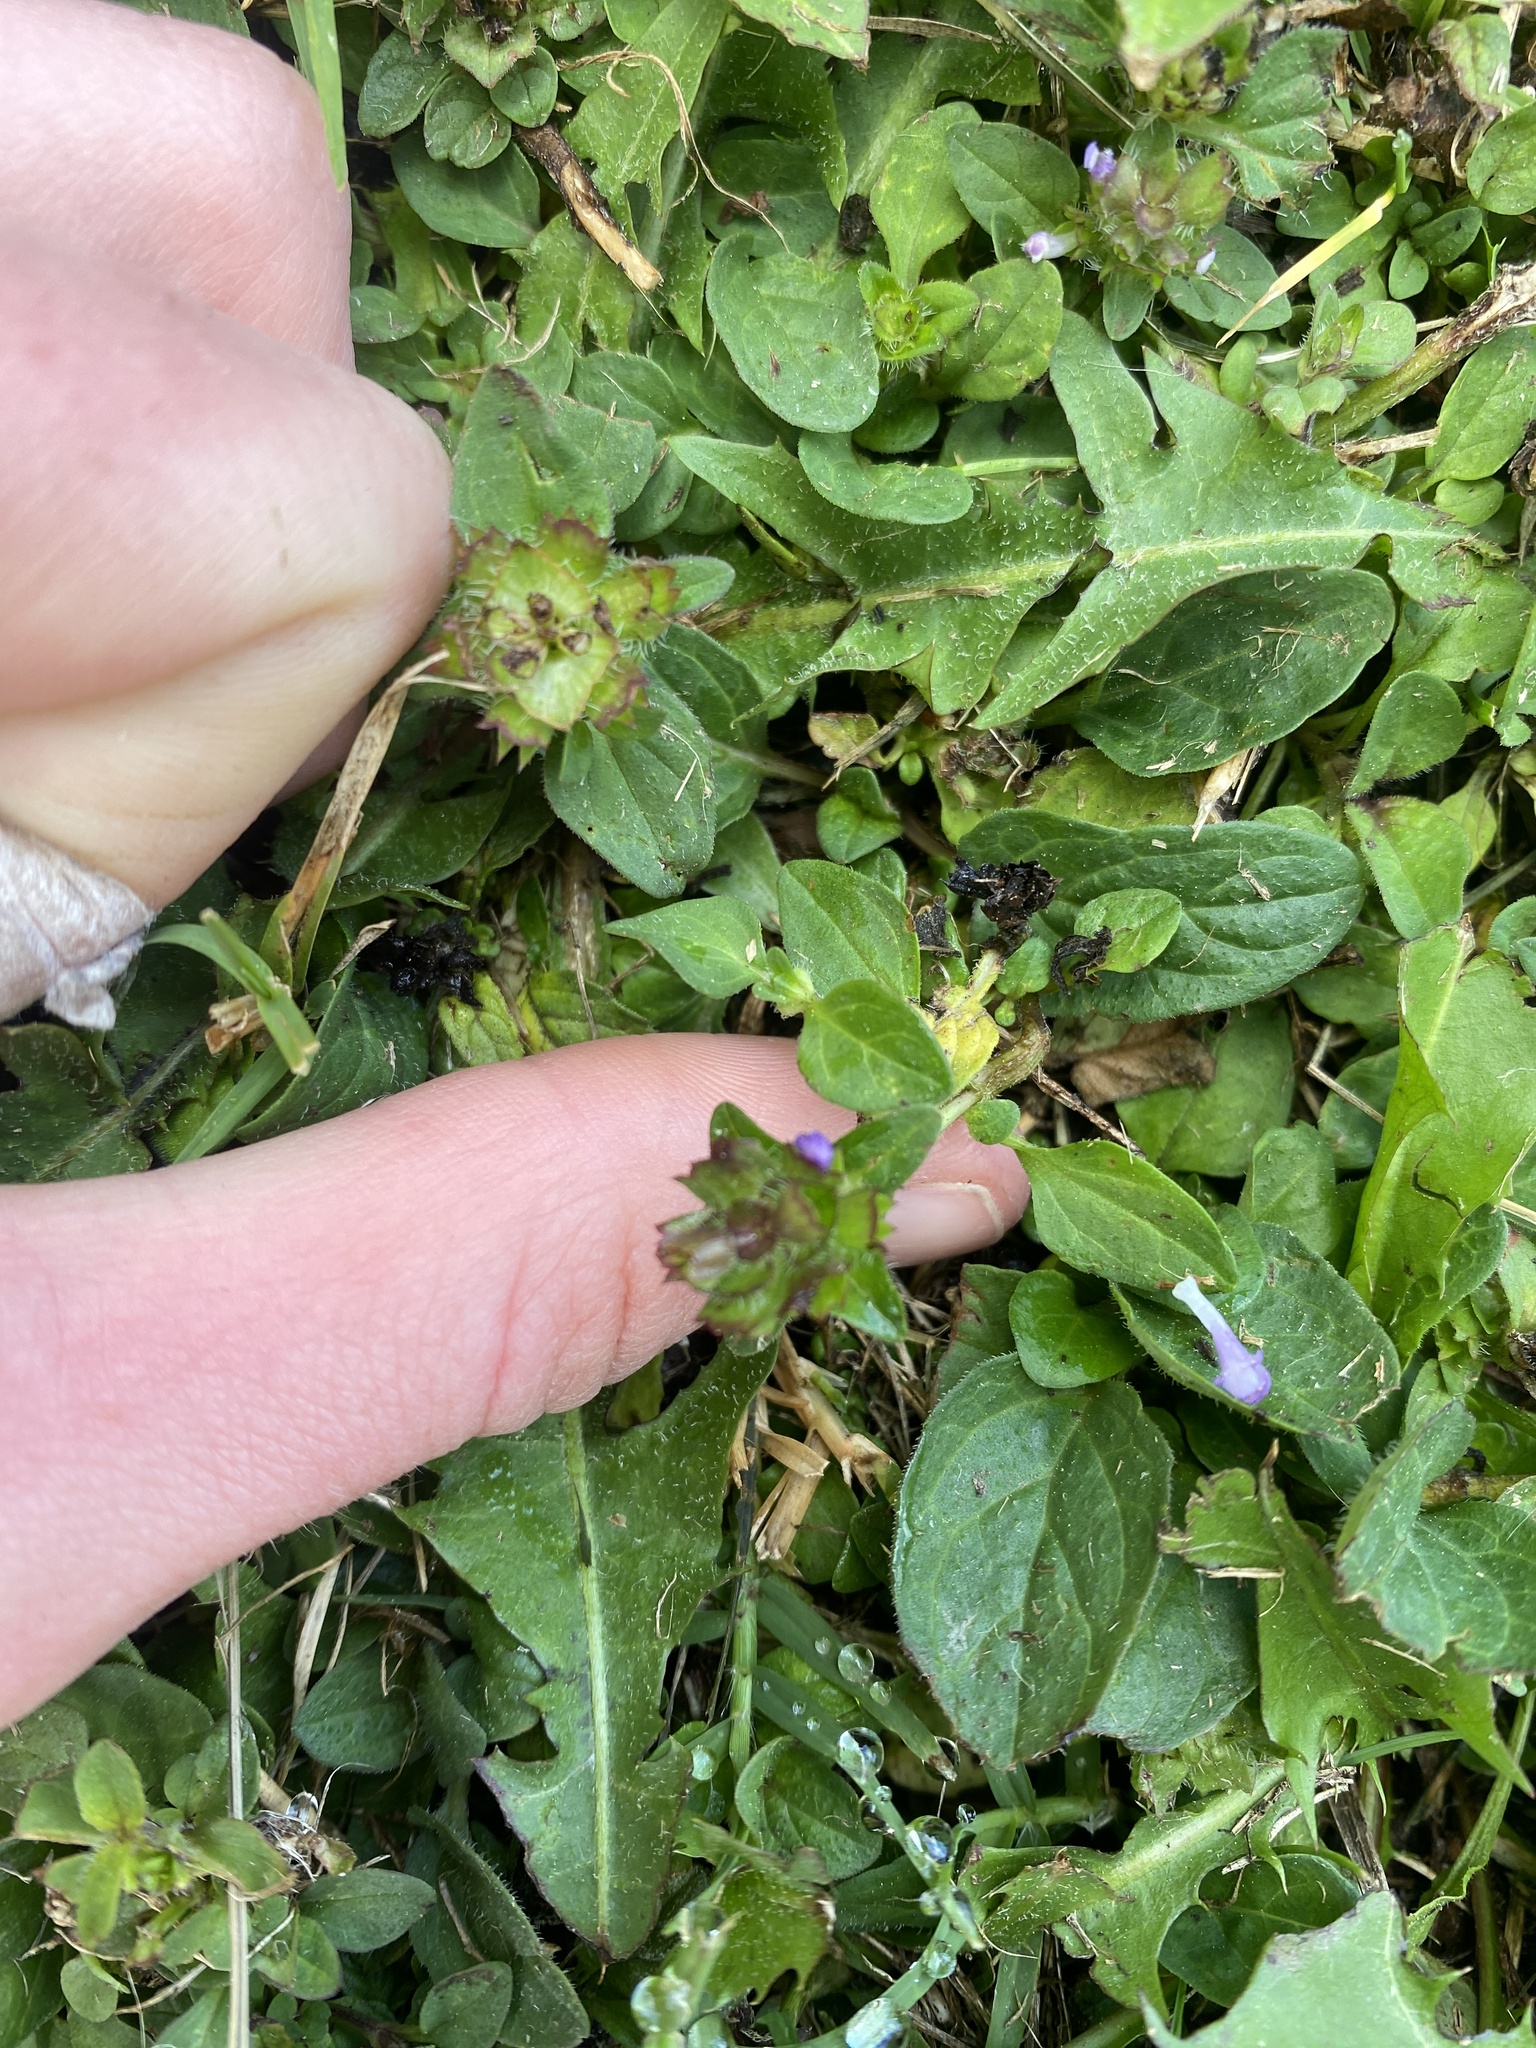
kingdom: Plantae
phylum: Tracheophyta
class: Magnoliopsida
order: Lamiales
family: Lamiaceae
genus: Prunella
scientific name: Prunella vulgaris
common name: Heal-all
